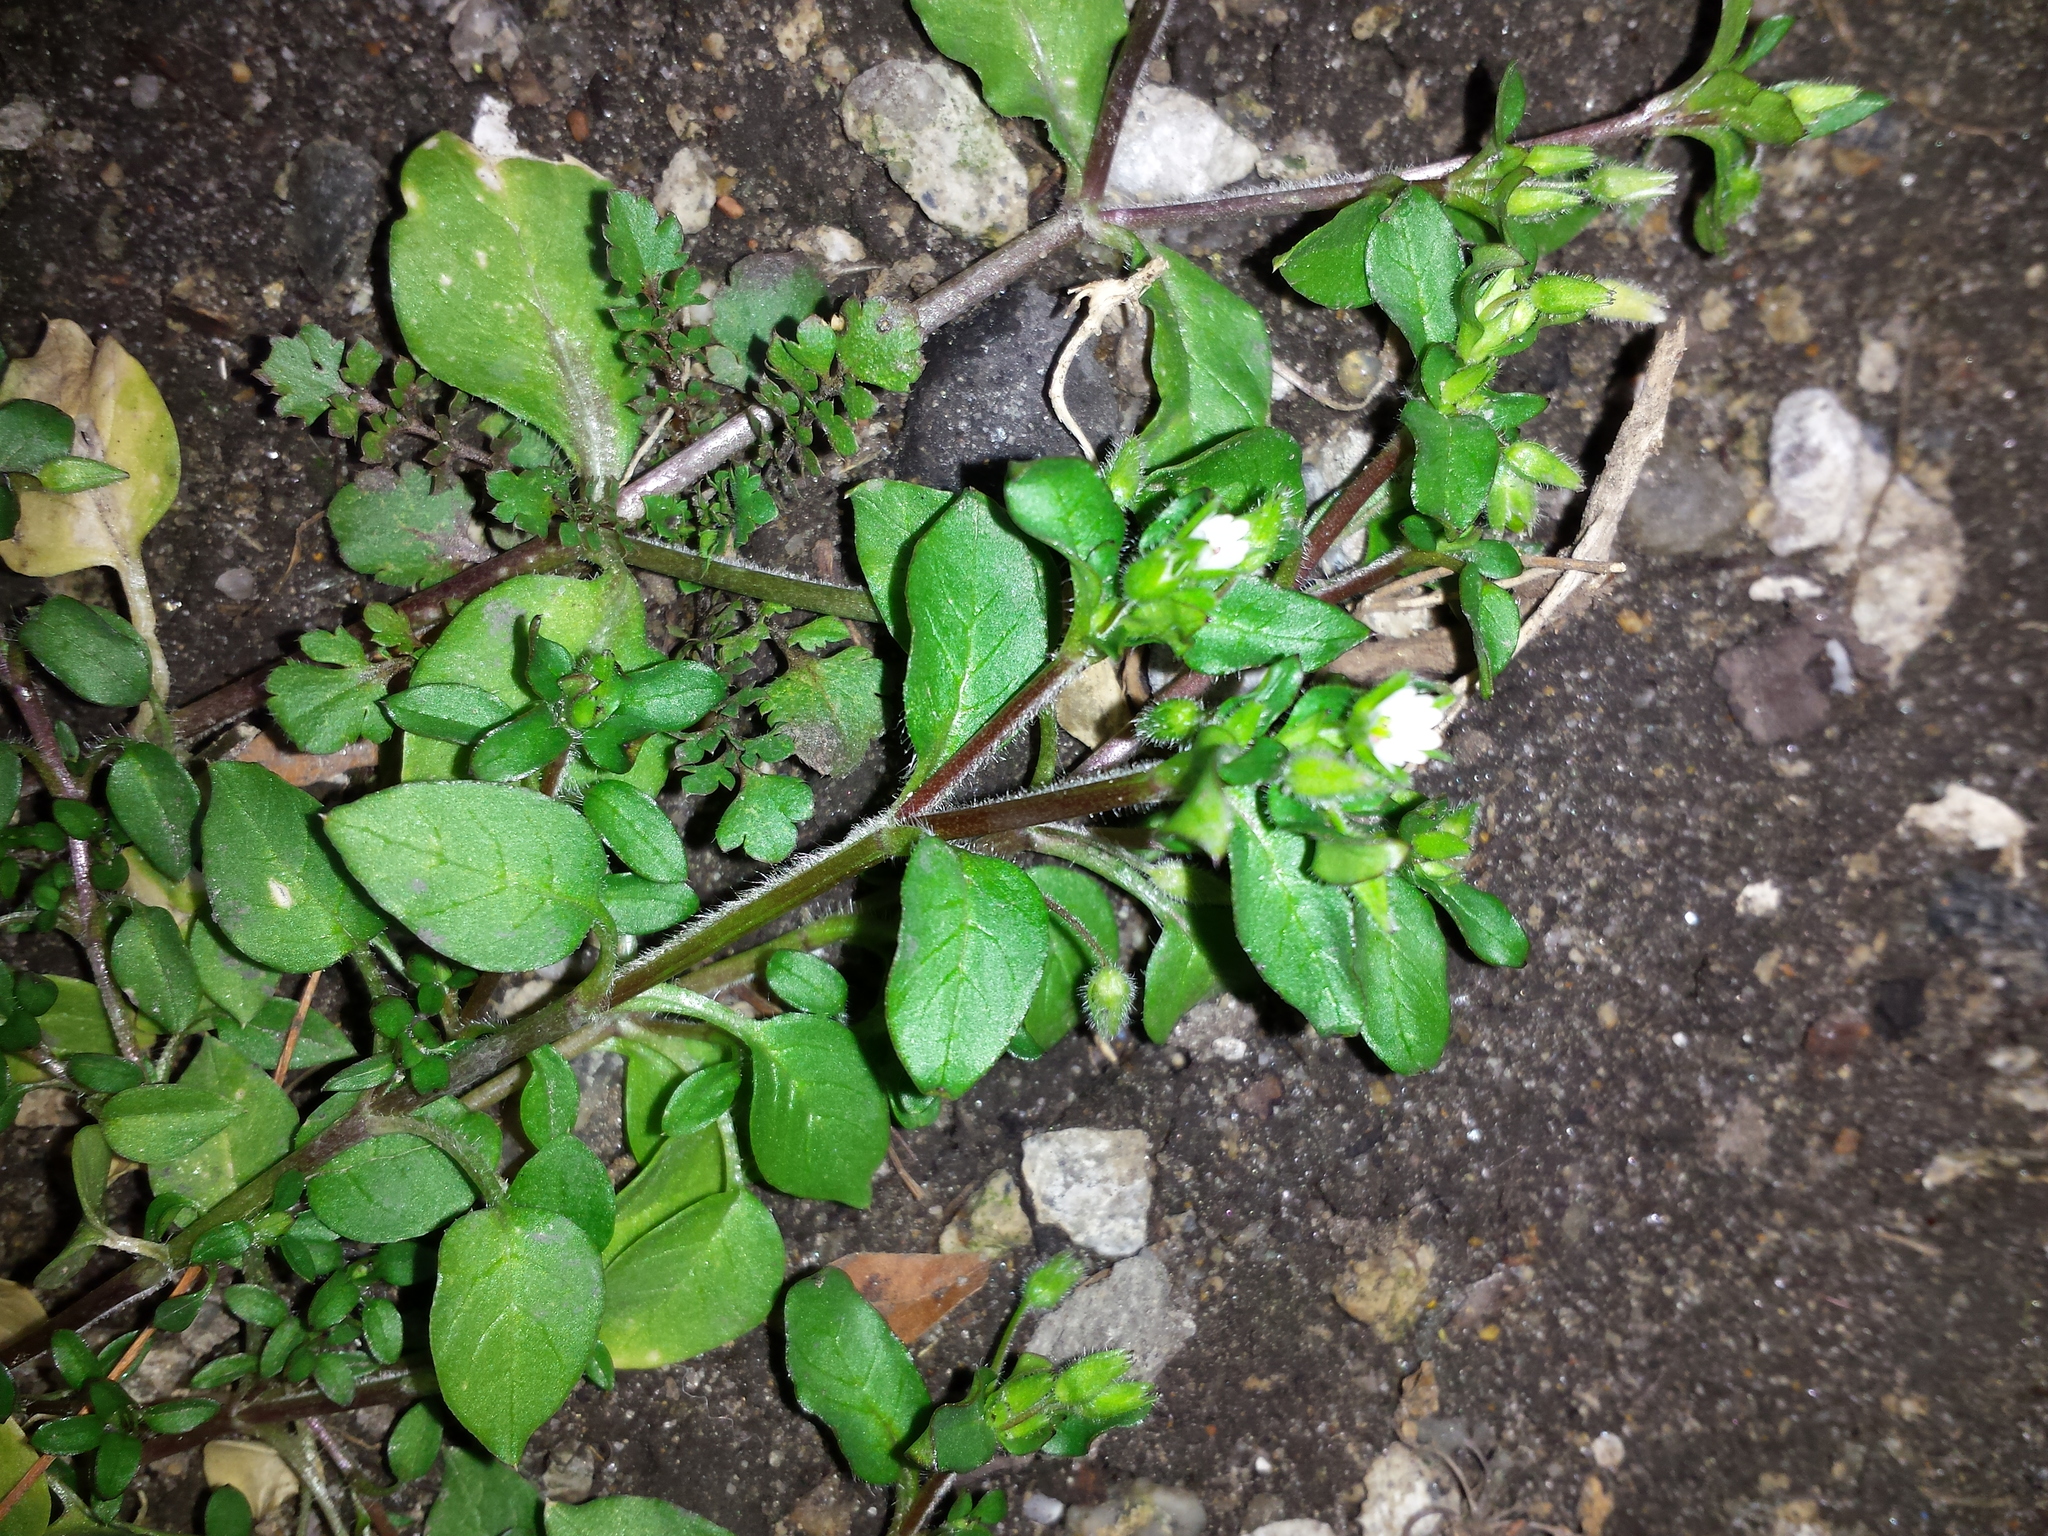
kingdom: Plantae
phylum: Tracheophyta
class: Magnoliopsida
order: Caryophyllales
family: Caryophyllaceae
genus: Stellaria
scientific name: Stellaria media
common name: Common chickweed
